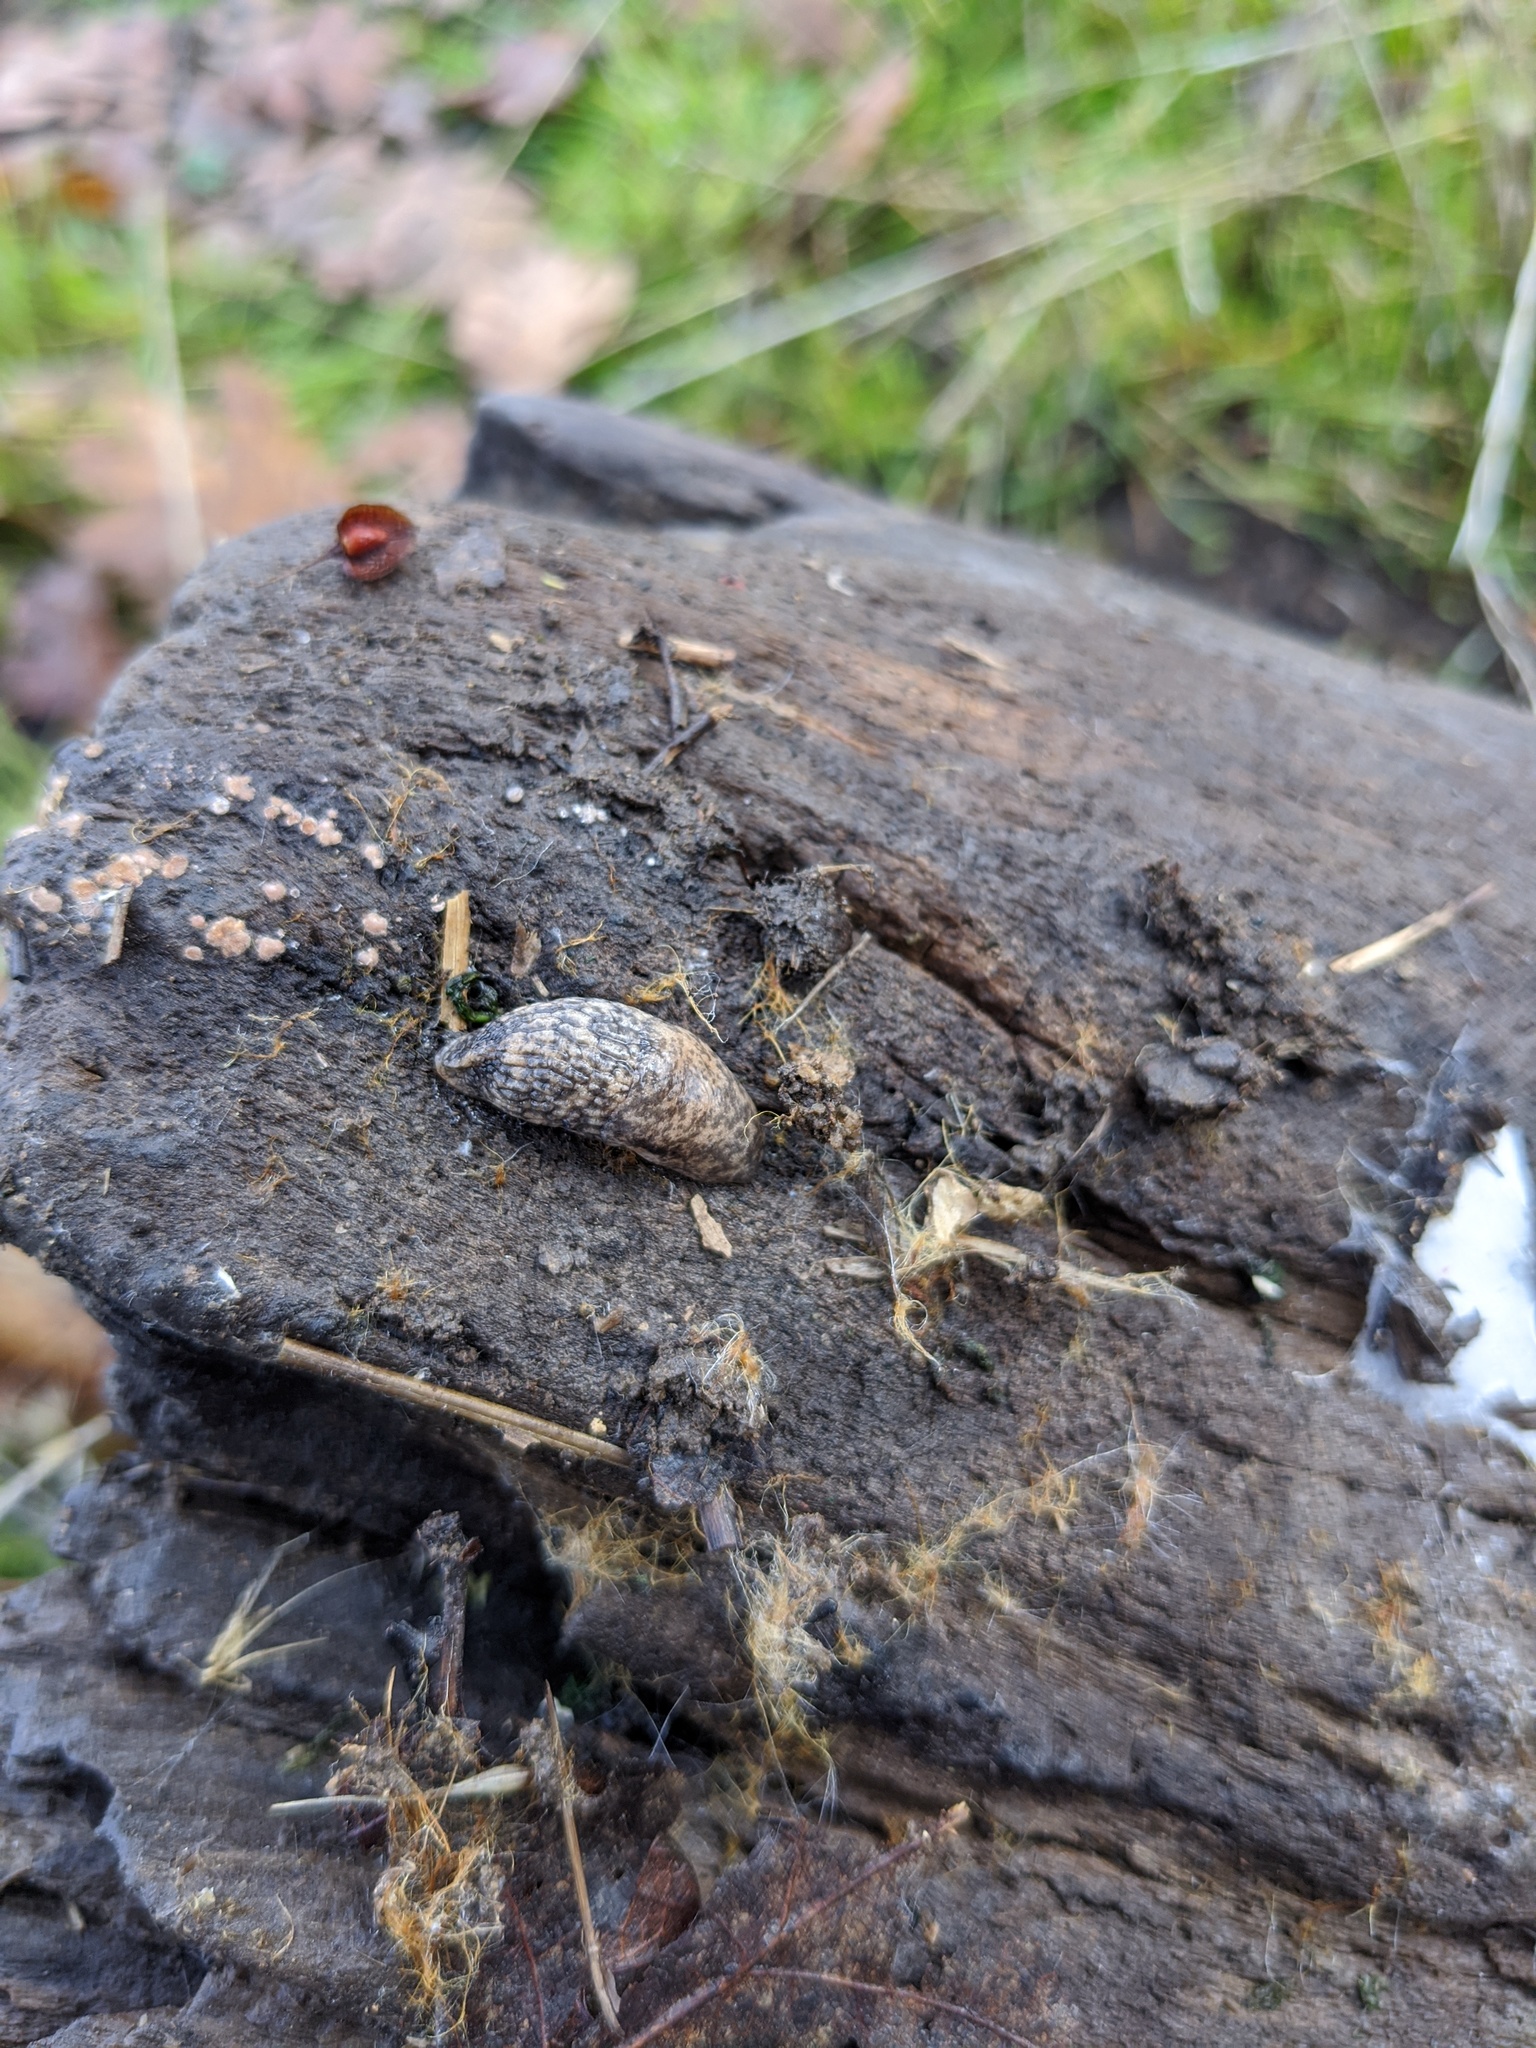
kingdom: Animalia
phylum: Mollusca
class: Gastropoda
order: Stylommatophora
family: Agriolimacidae
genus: Deroceras
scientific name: Deroceras reticulatum
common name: Gray field slug
